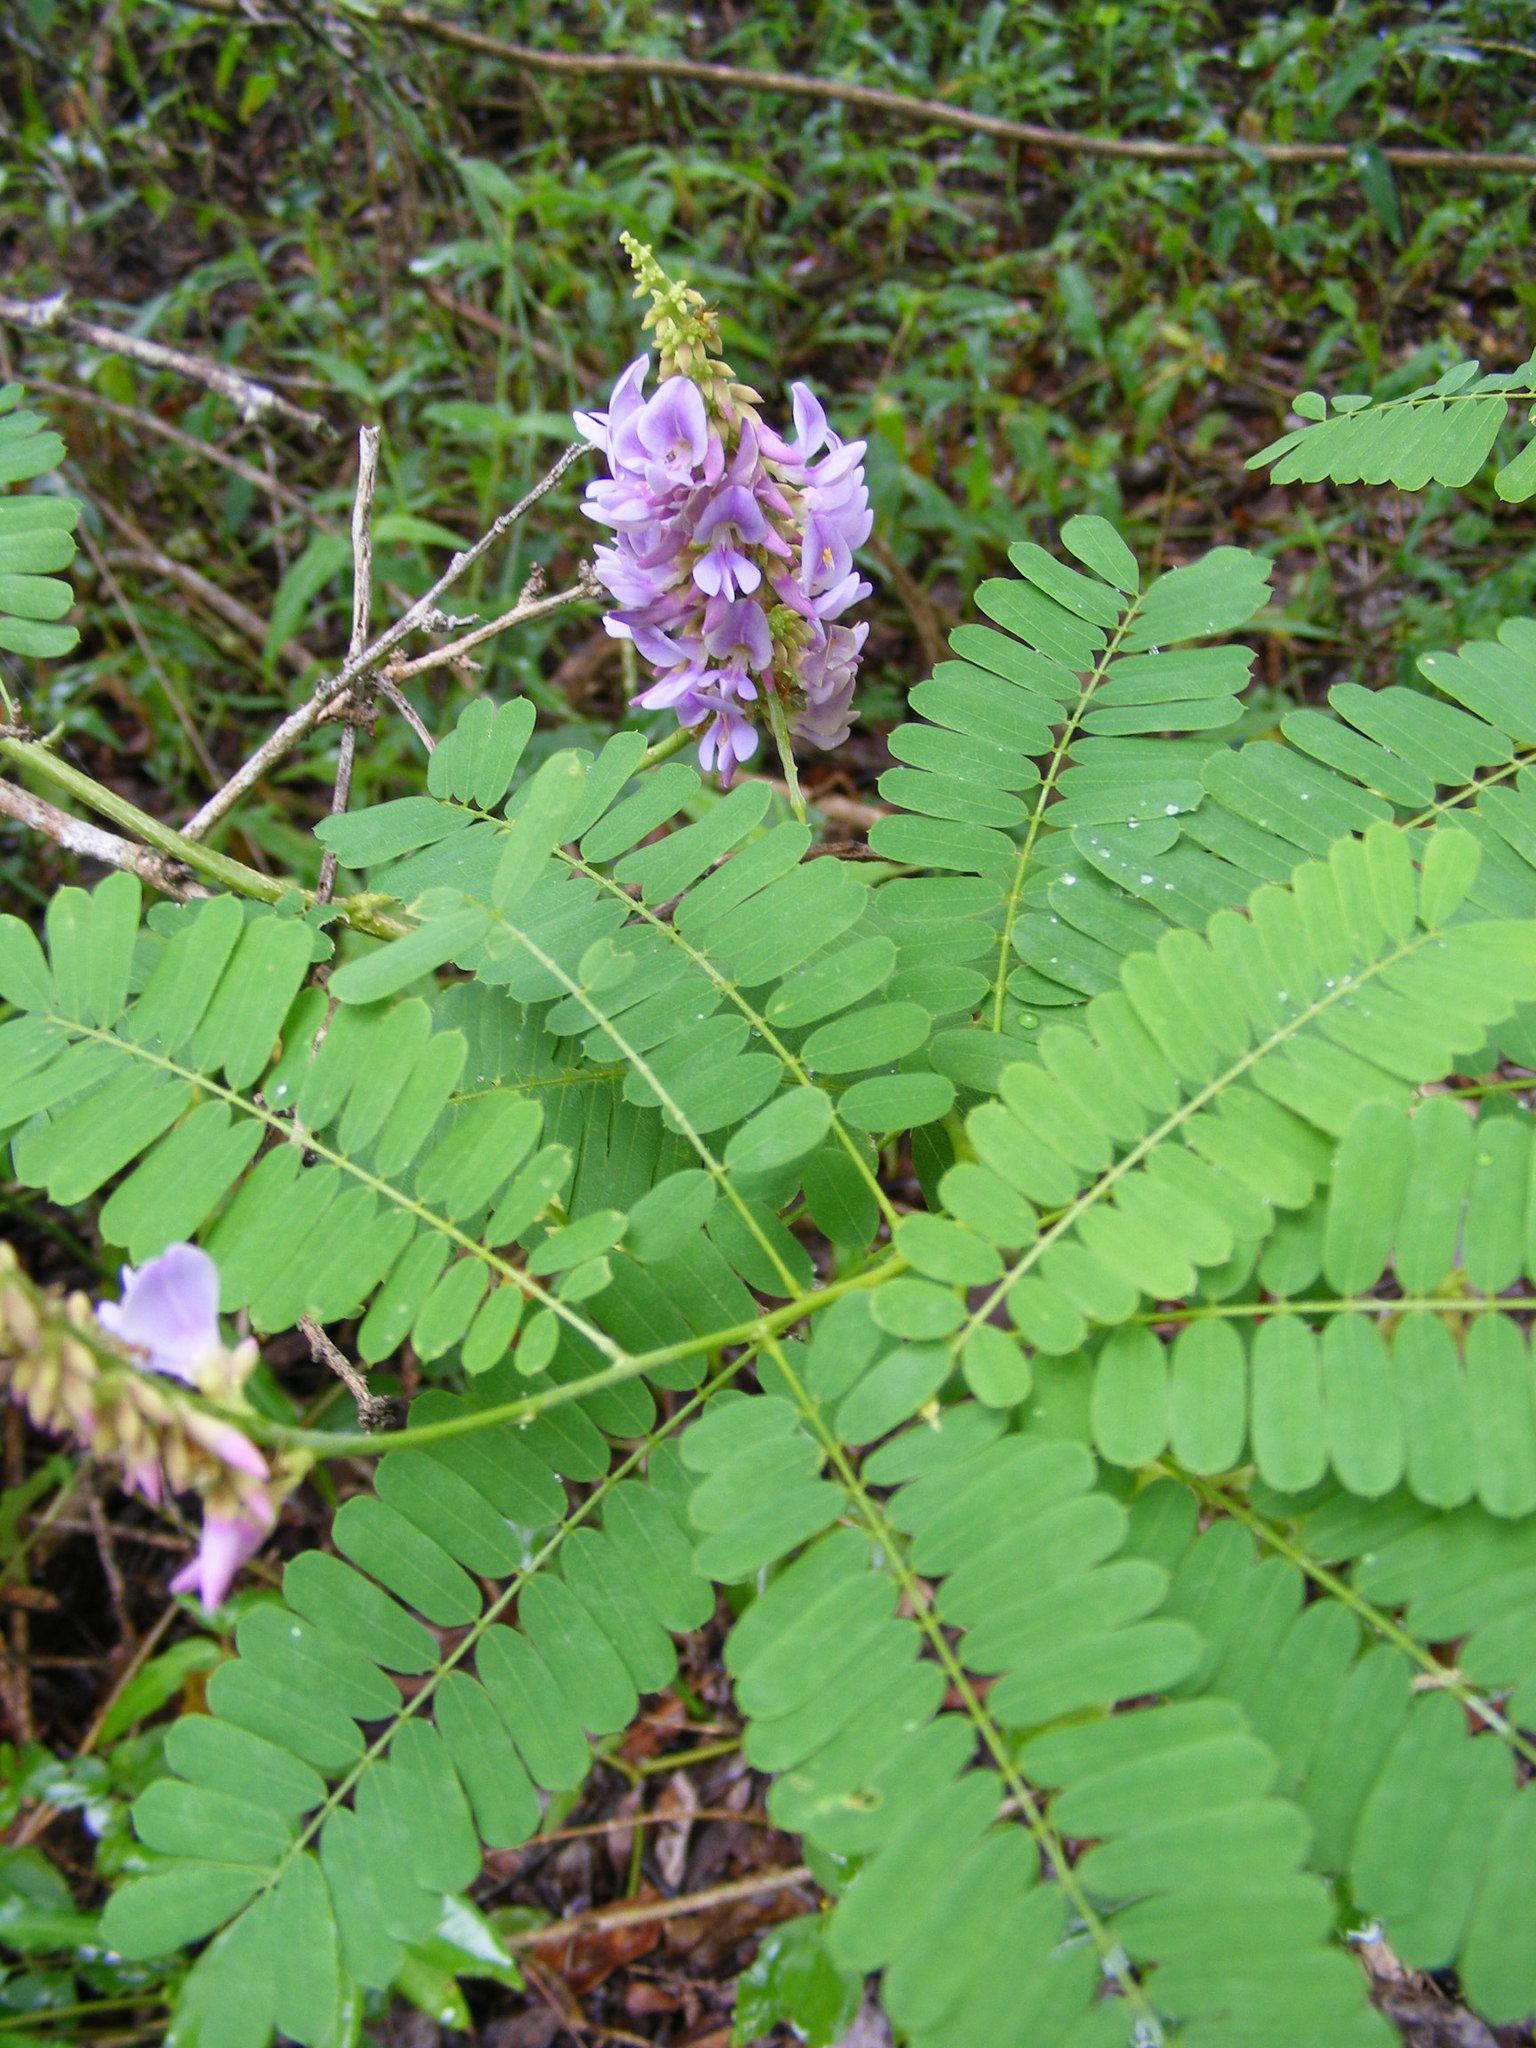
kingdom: Plantae
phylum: Tracheophyta
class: Magnoliopsida
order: Fabales
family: Fabaceae
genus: Abrus
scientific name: Abrus precatorius
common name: Rosarypea
